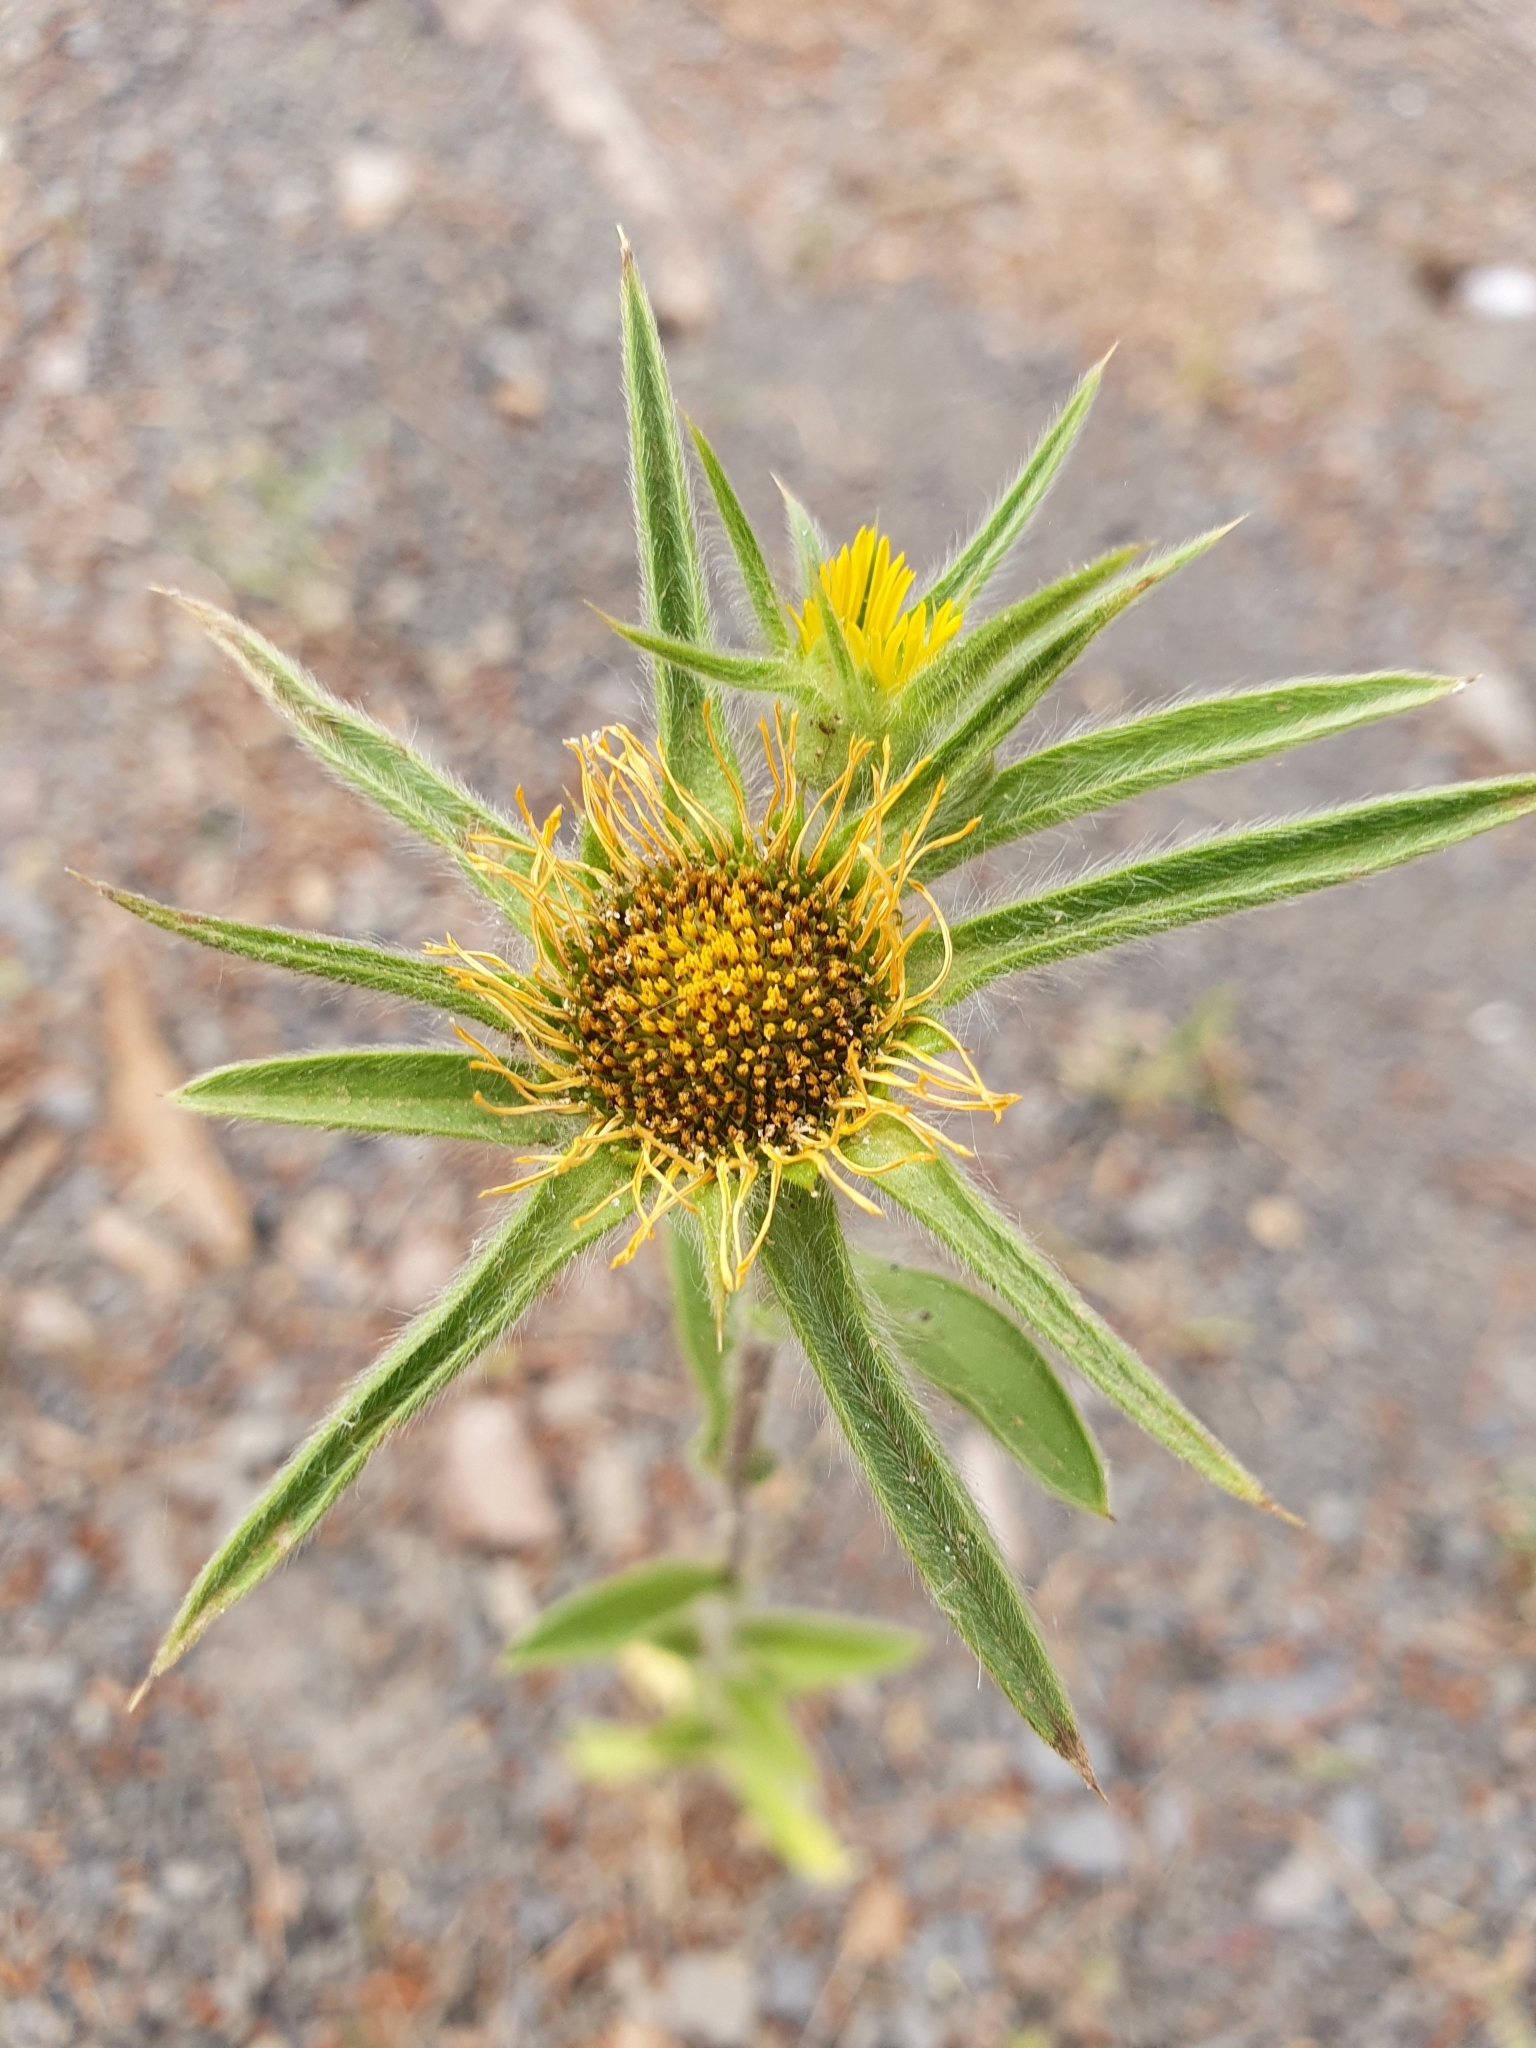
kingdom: Plantae
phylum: Tracheophyta
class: Magnoliopsida
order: Asterales
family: Asteraceae
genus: Pallenis
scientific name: Pallenis spinosa
